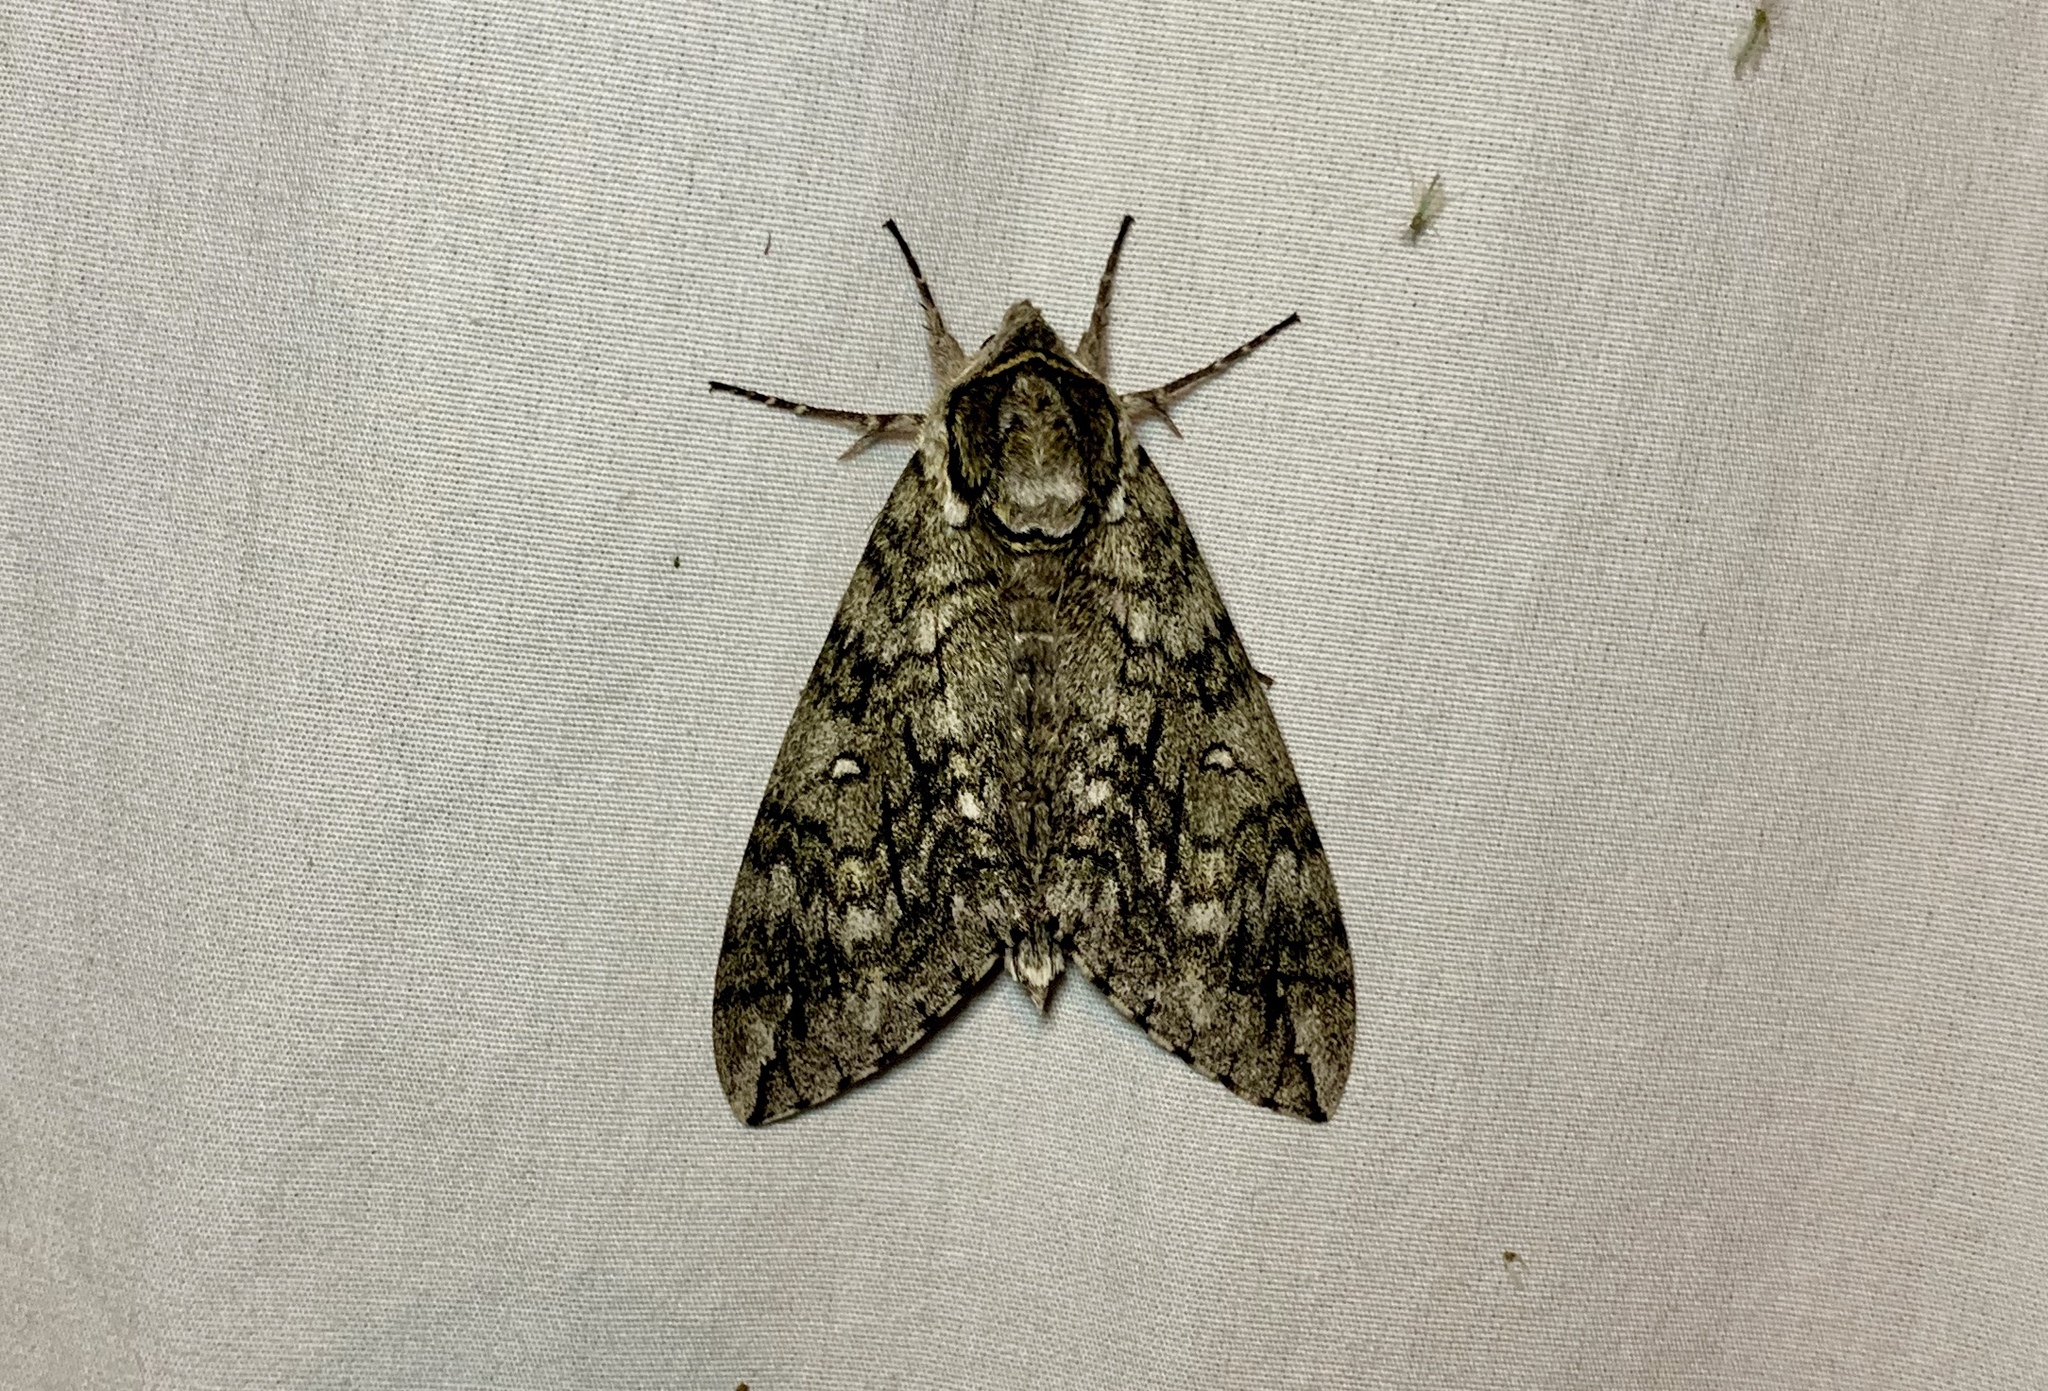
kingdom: Animalia
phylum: Arthropoda
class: Insecta
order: Lepidoptera
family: Sphingidae
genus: Ceratomia
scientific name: Ceratomia undulosa
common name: Waved sphinx
